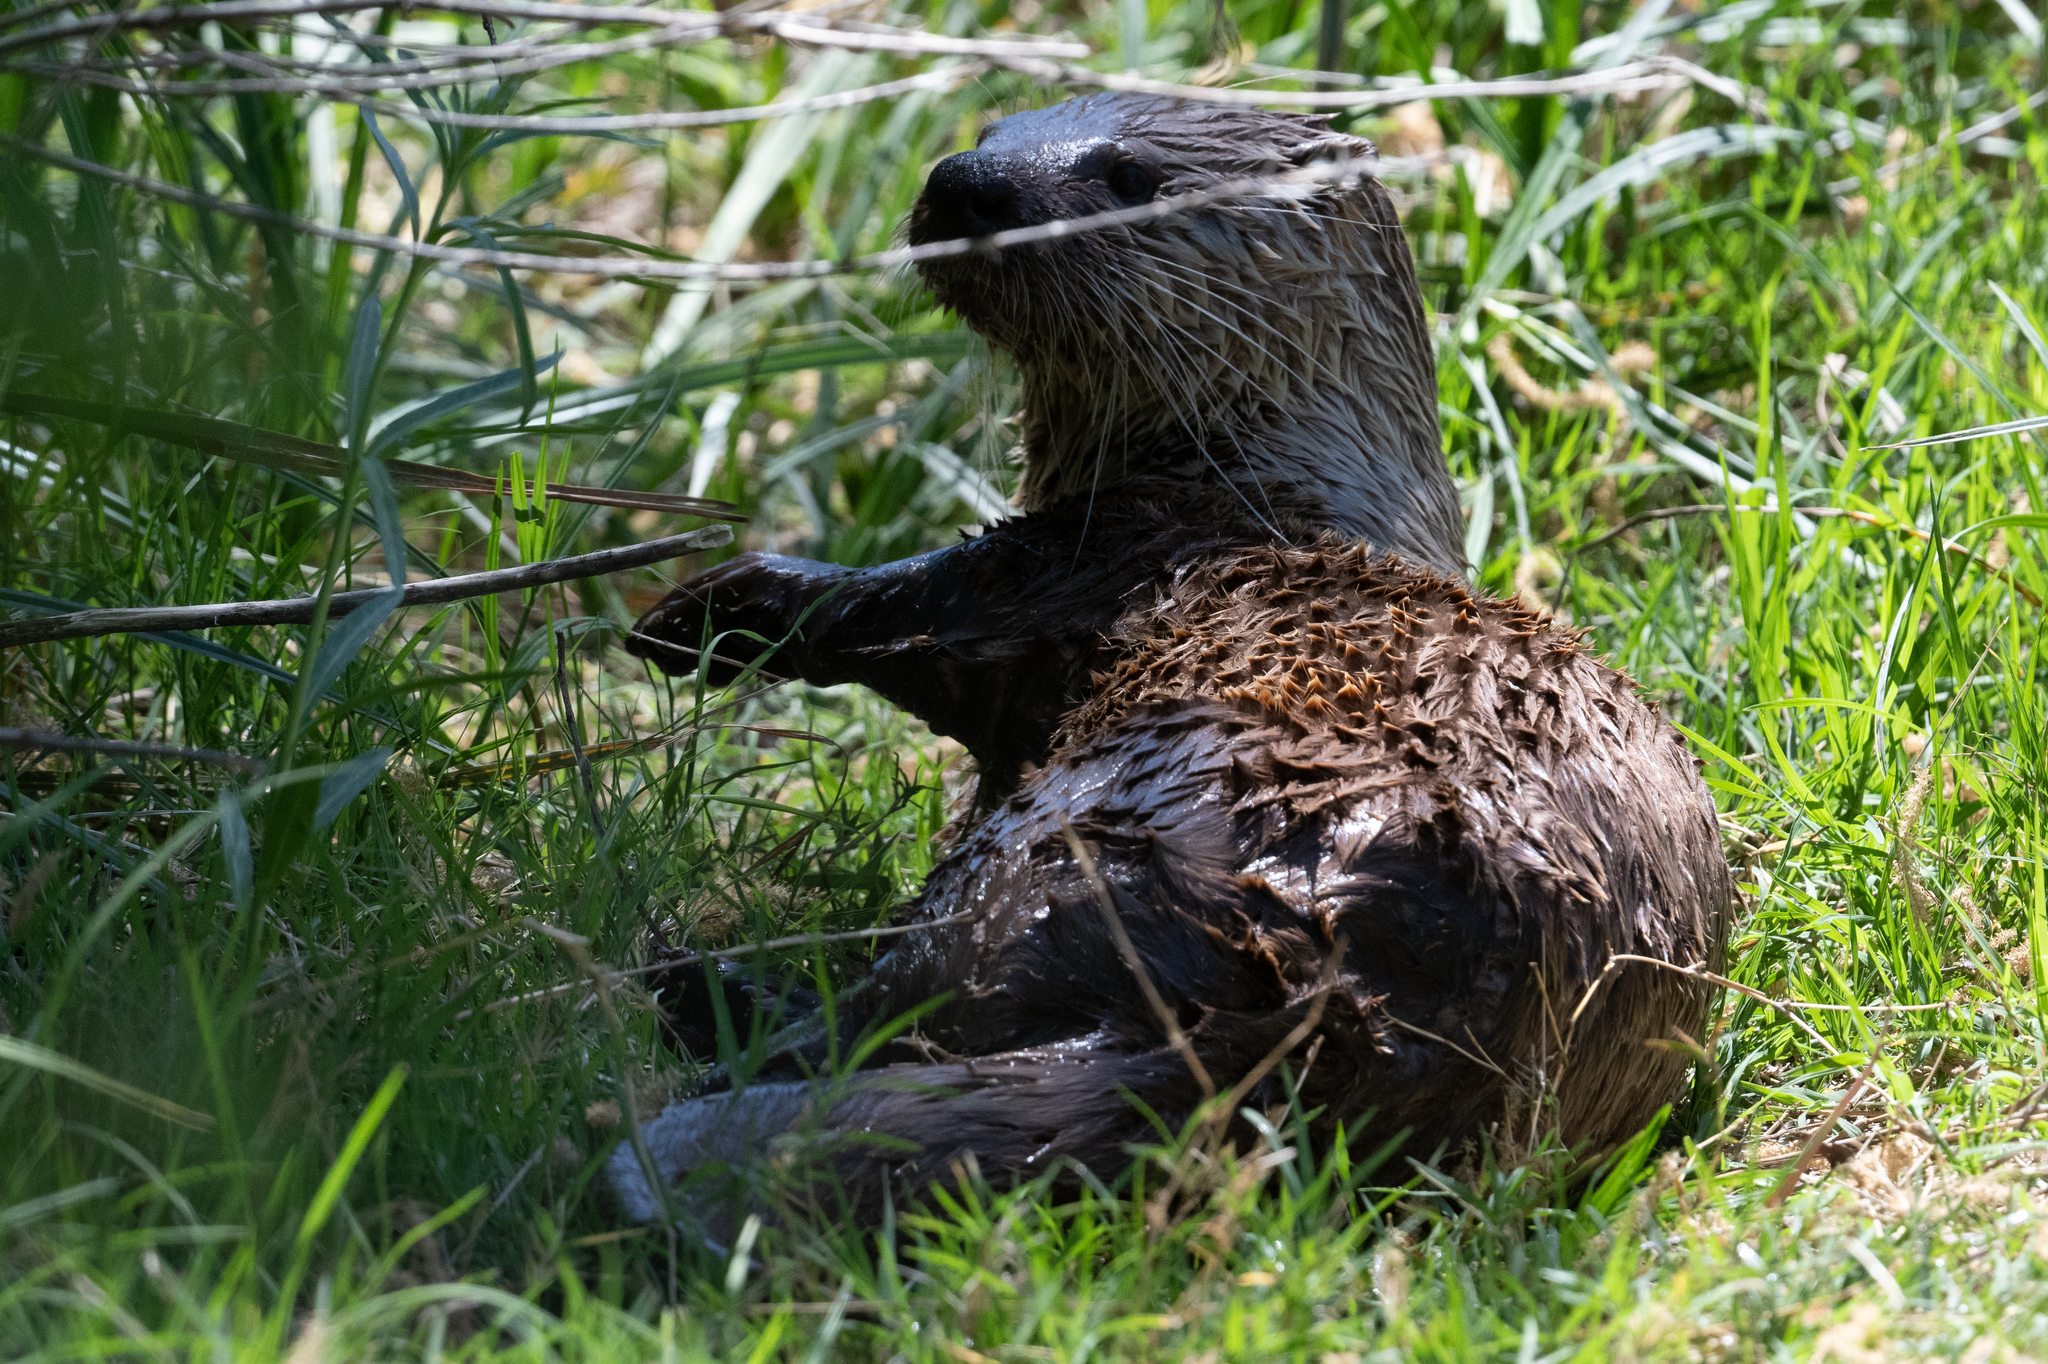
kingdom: Animalia
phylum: Chordata
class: Mammalia
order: Carnivora
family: Mustelidae
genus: Lontra
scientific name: Lontra canadensis
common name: North american river otter
